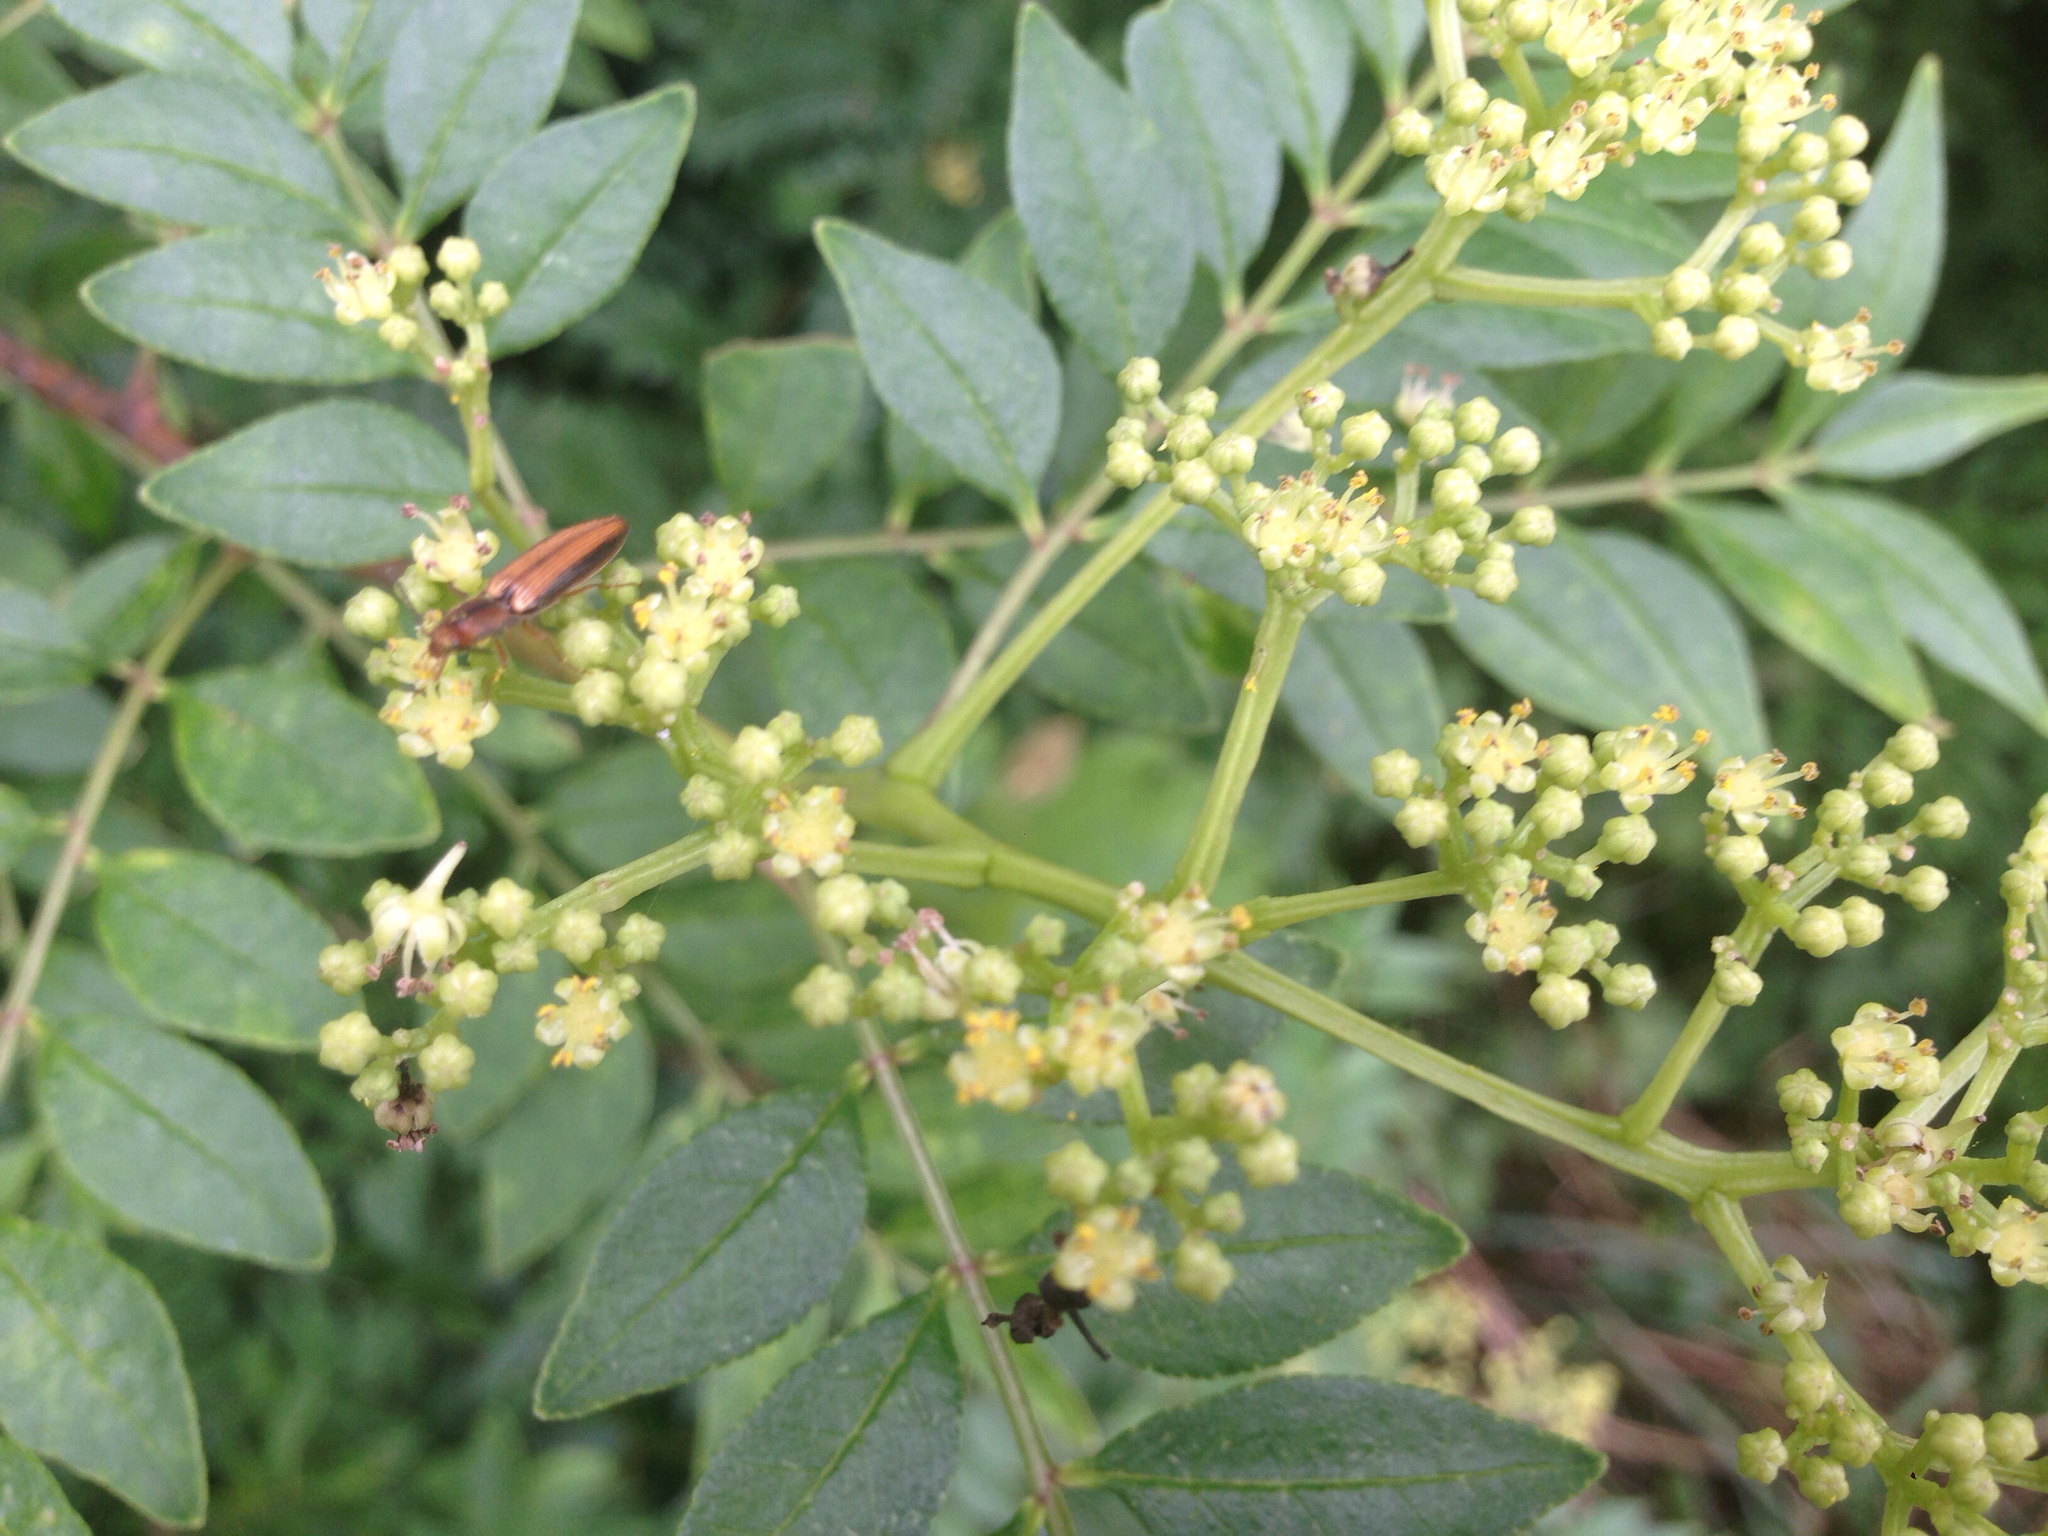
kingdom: Animalia
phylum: Arthropoda
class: Insecta
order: Coleoptera
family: Elateridae
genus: Ludioschema
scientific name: Ludioschema vittiger
